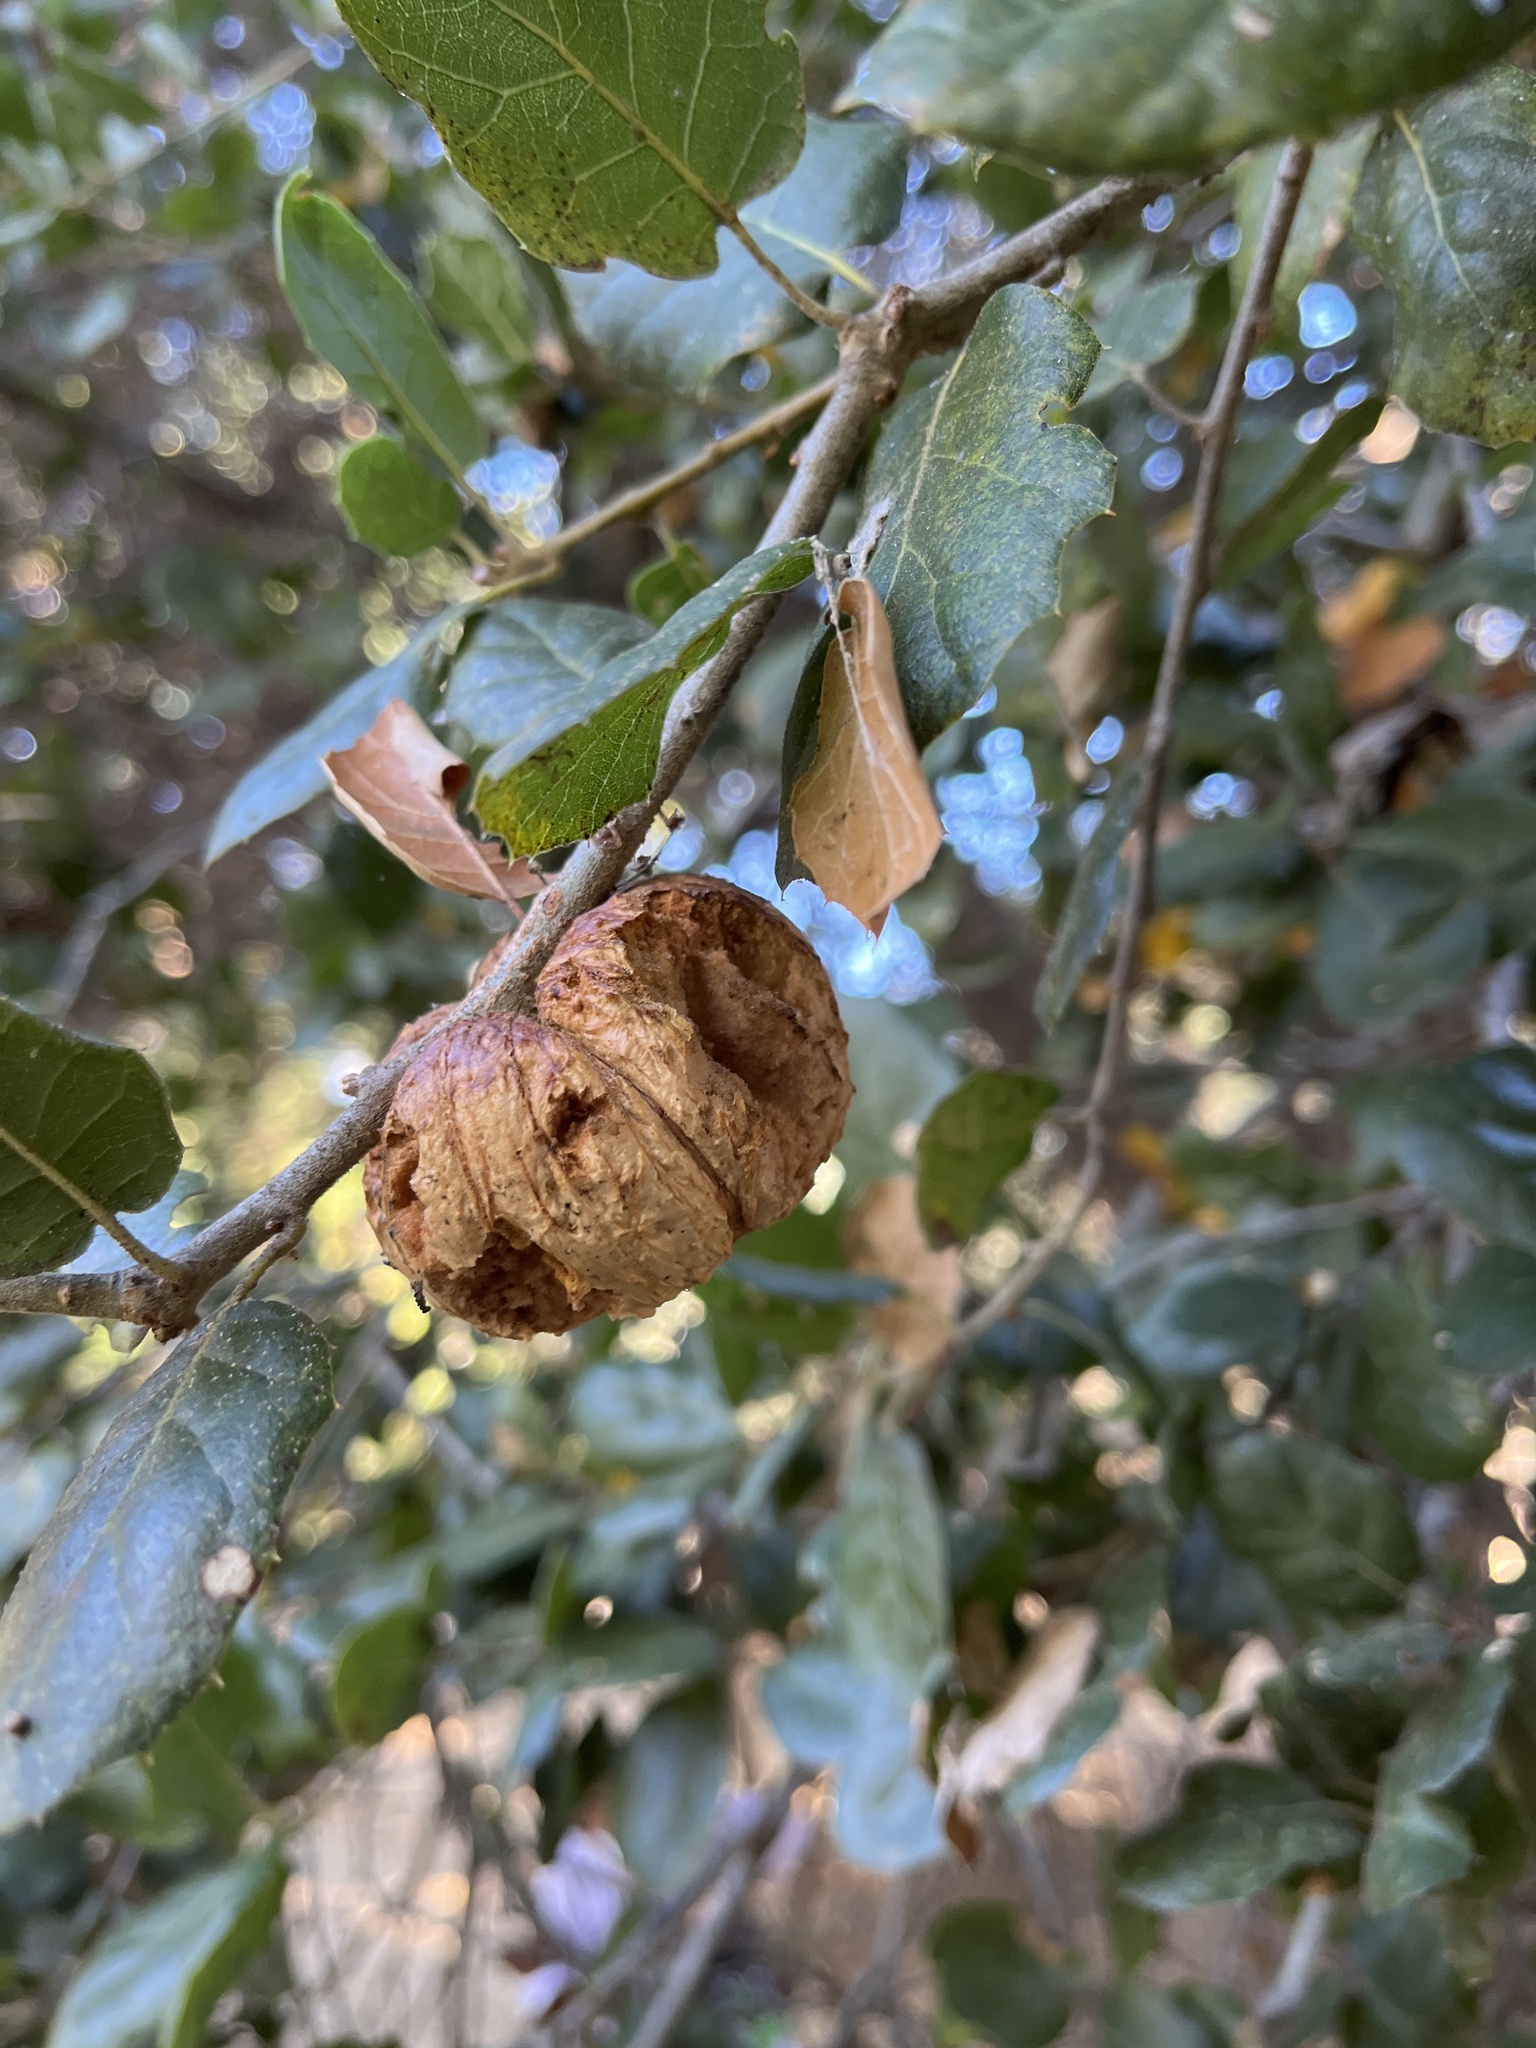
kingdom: Animalia
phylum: Arthropoda
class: Insecta
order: Hymenoptera
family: Cynipidae
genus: Amphibolips
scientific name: Amphibolips quercuspomiformis
